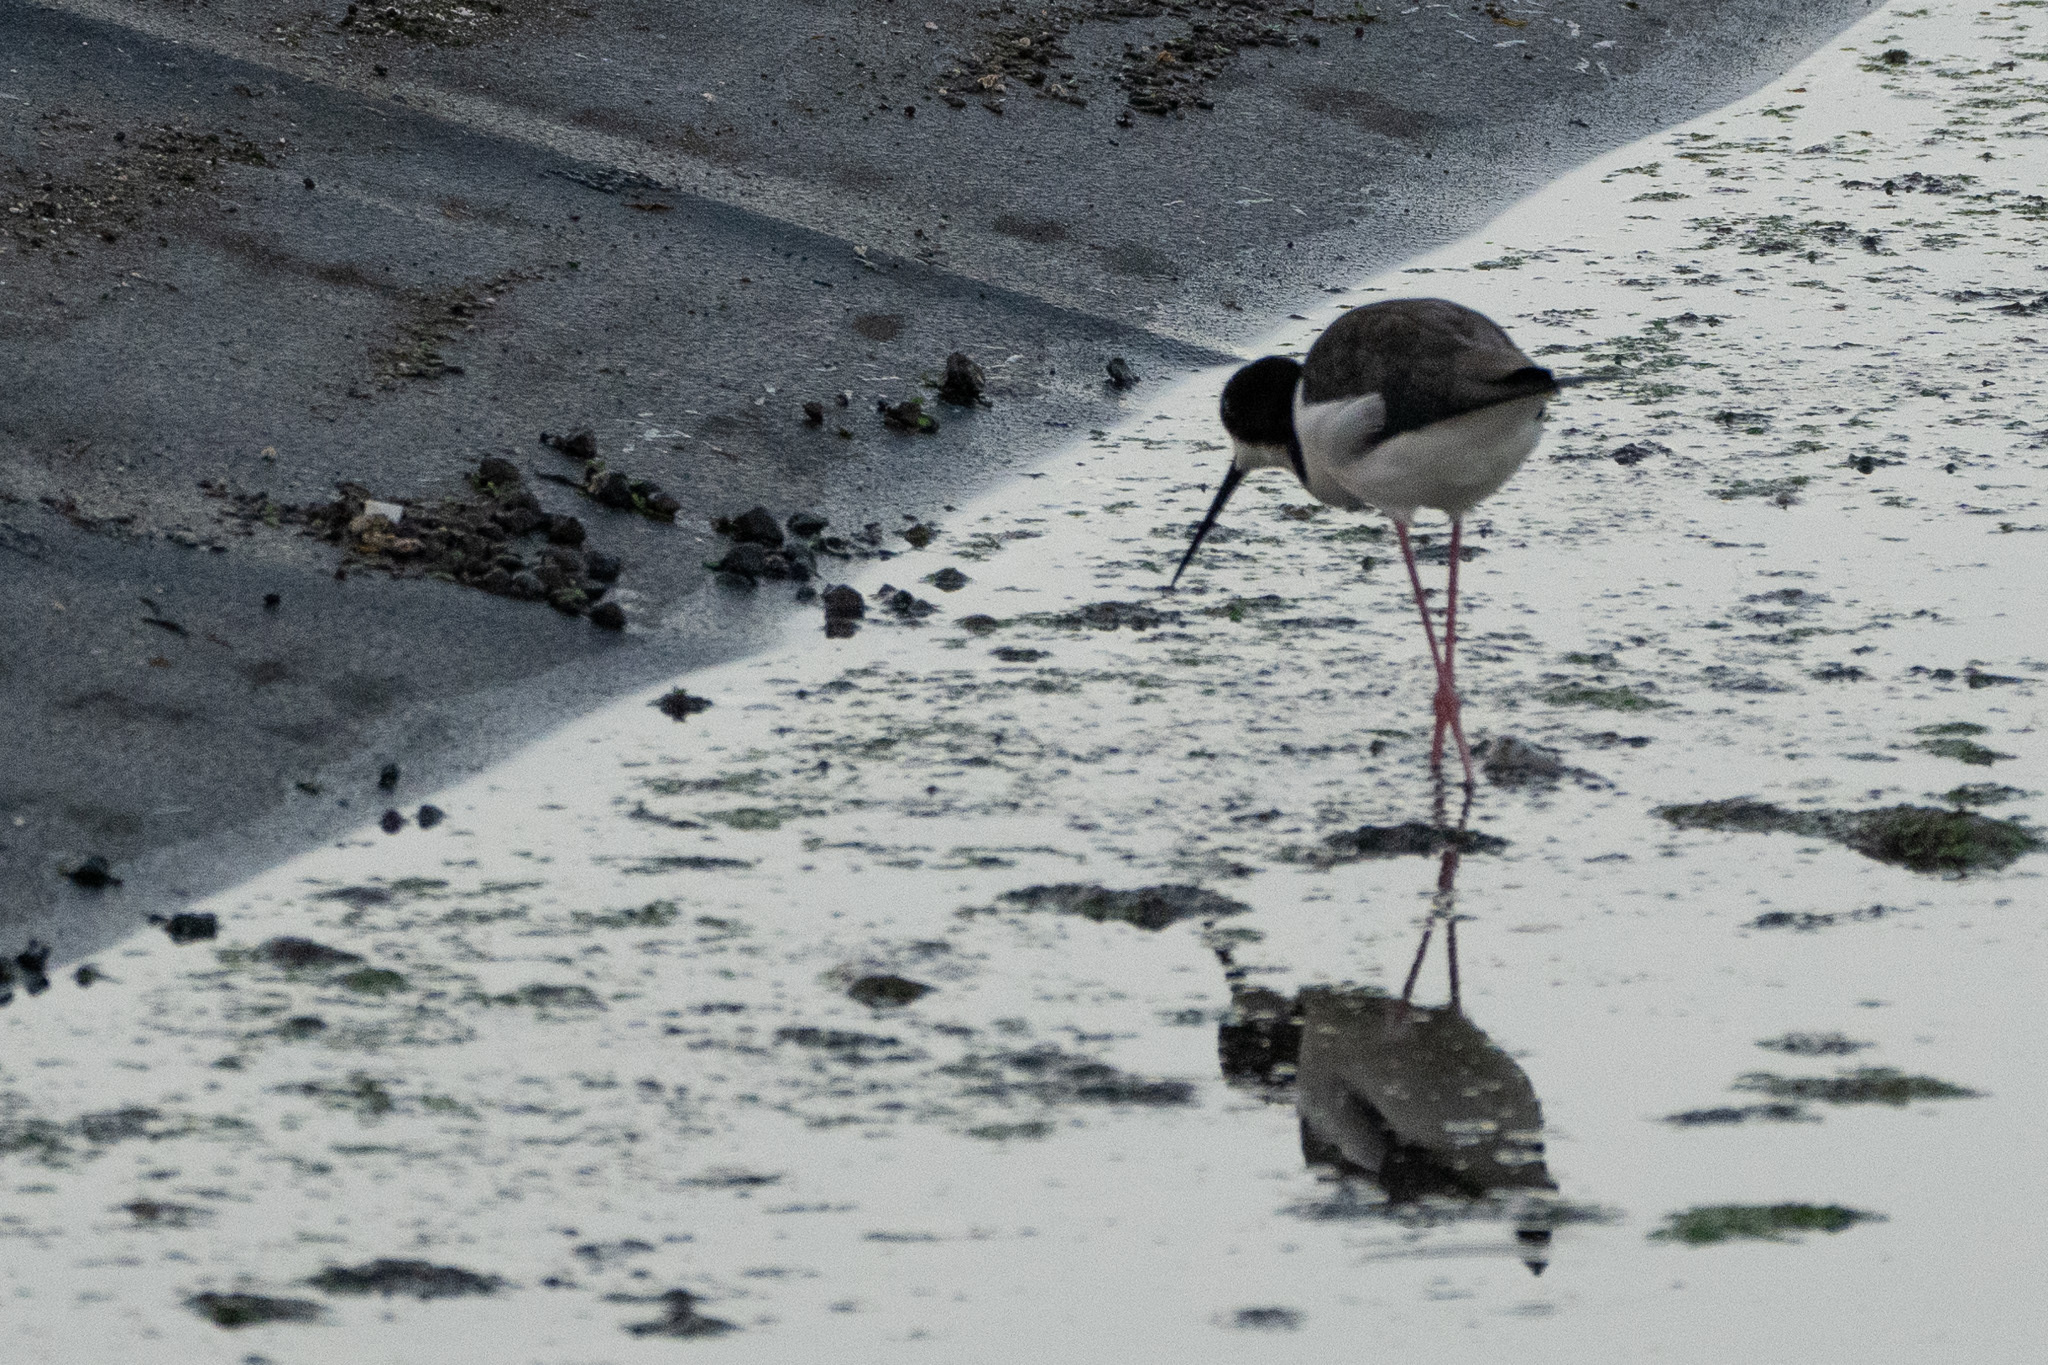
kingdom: Animalia
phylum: Chordata
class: Aves
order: Charadriiformes
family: Recurvirostridae
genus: Himantopus
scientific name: Himantopus mexicanus
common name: Black-necked stilt
